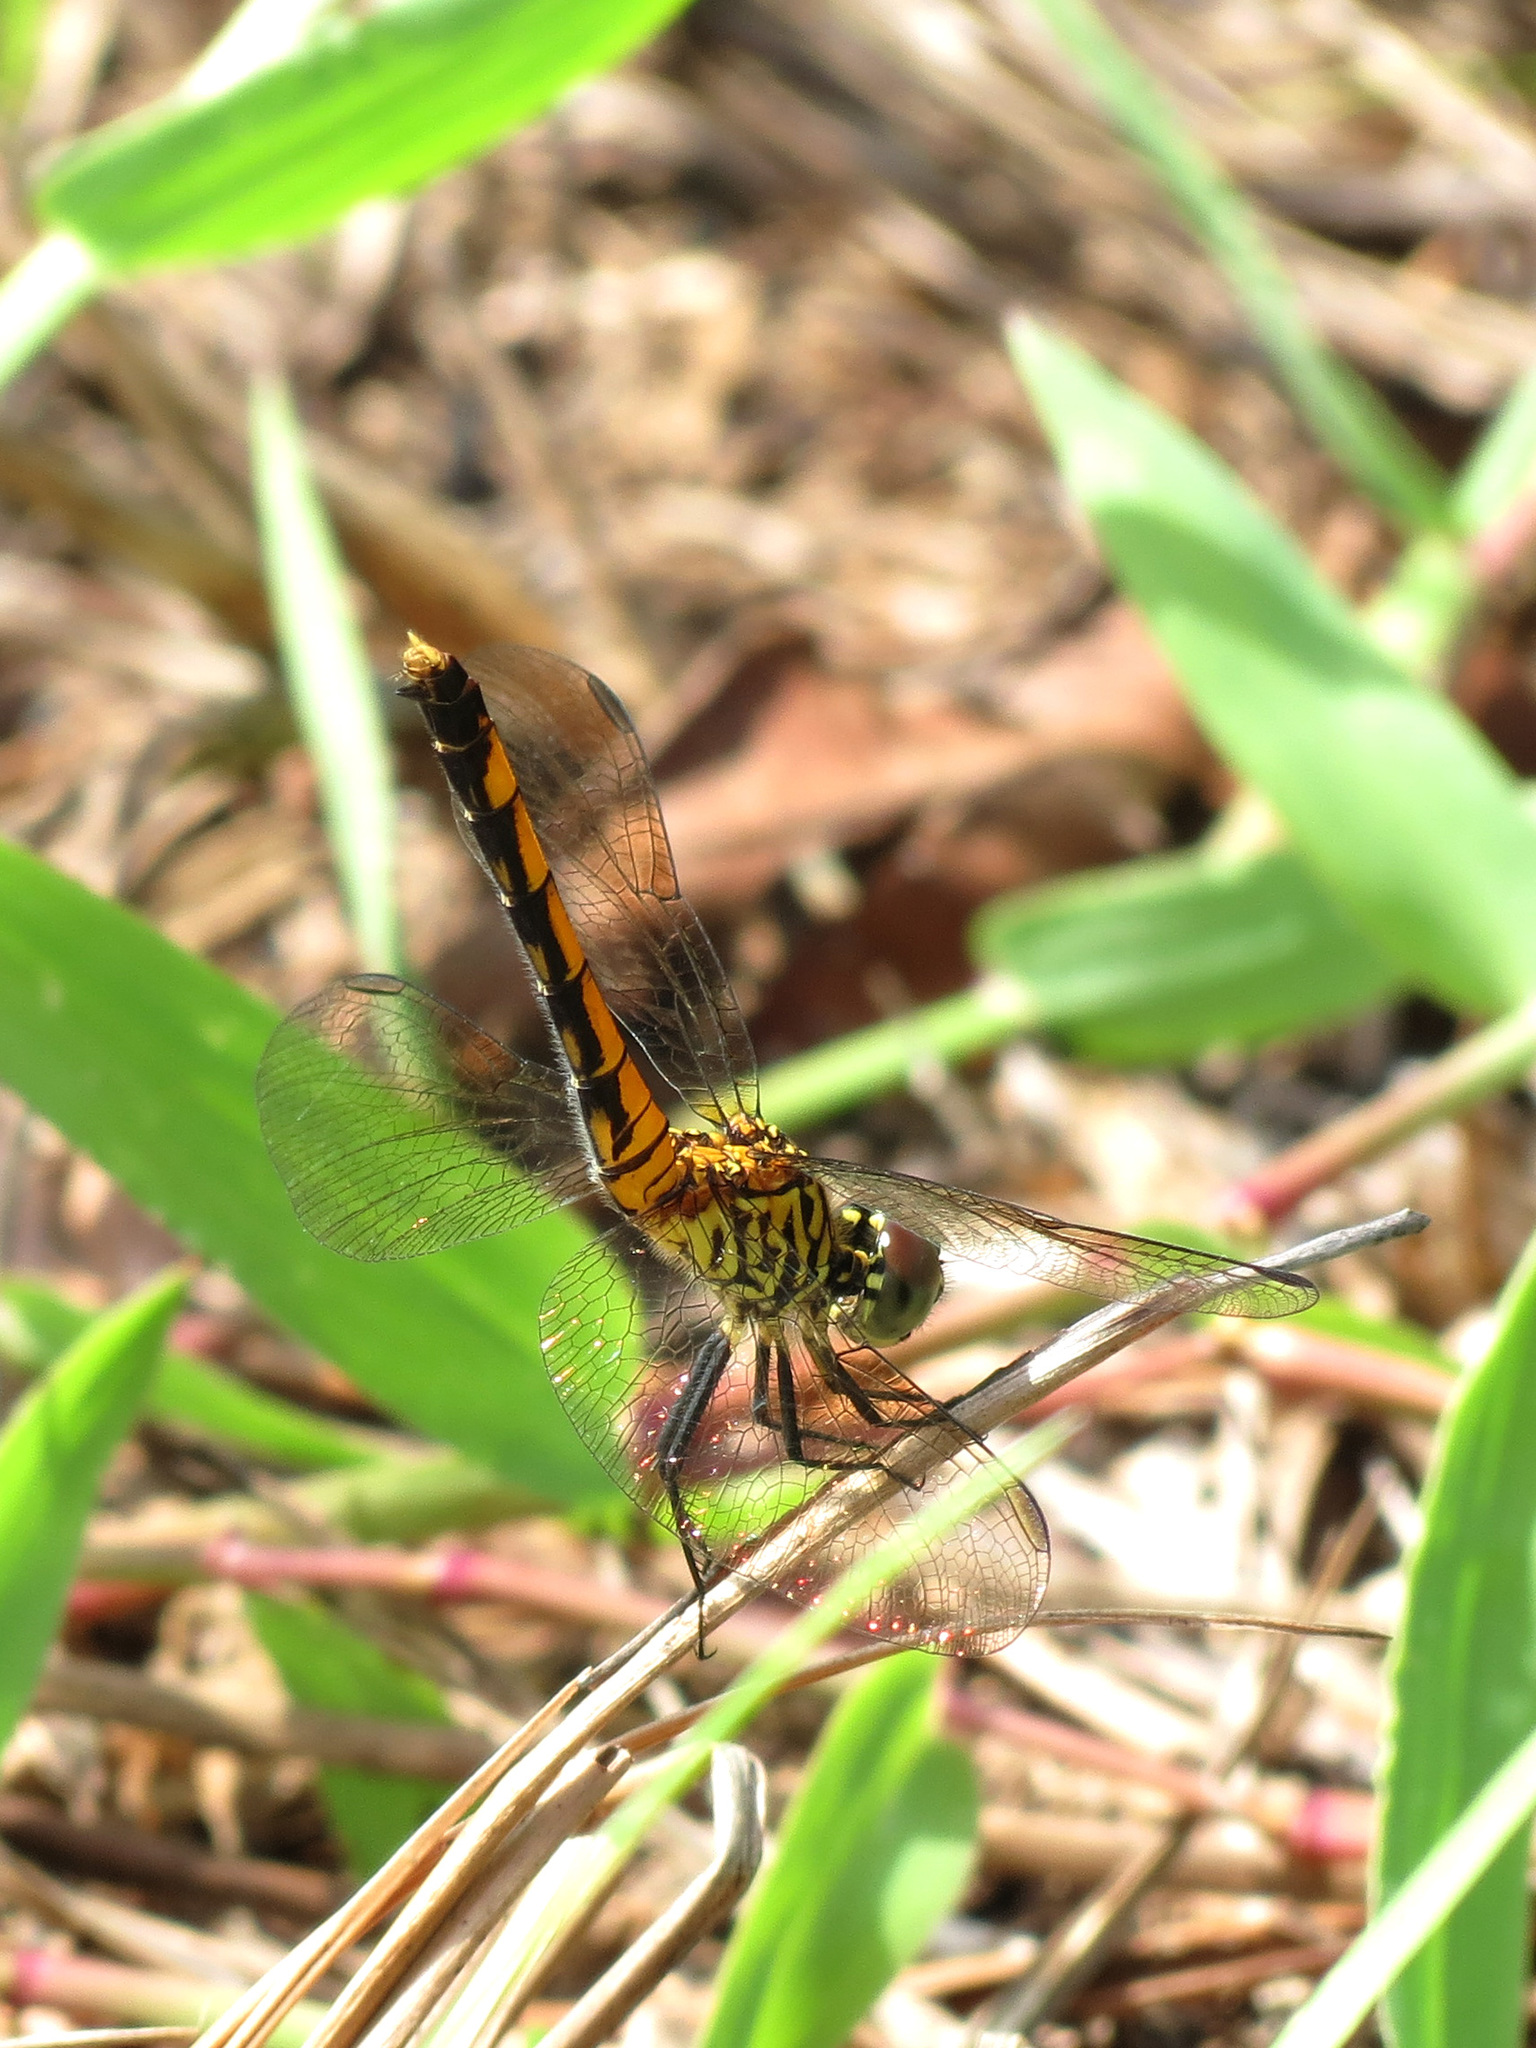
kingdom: Animalia
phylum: Arthropoda
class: Insecta
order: Odonata
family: Libellulidae
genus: Erythrodiplax
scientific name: Erythrodiplax berenice
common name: Seaside dragonlet
